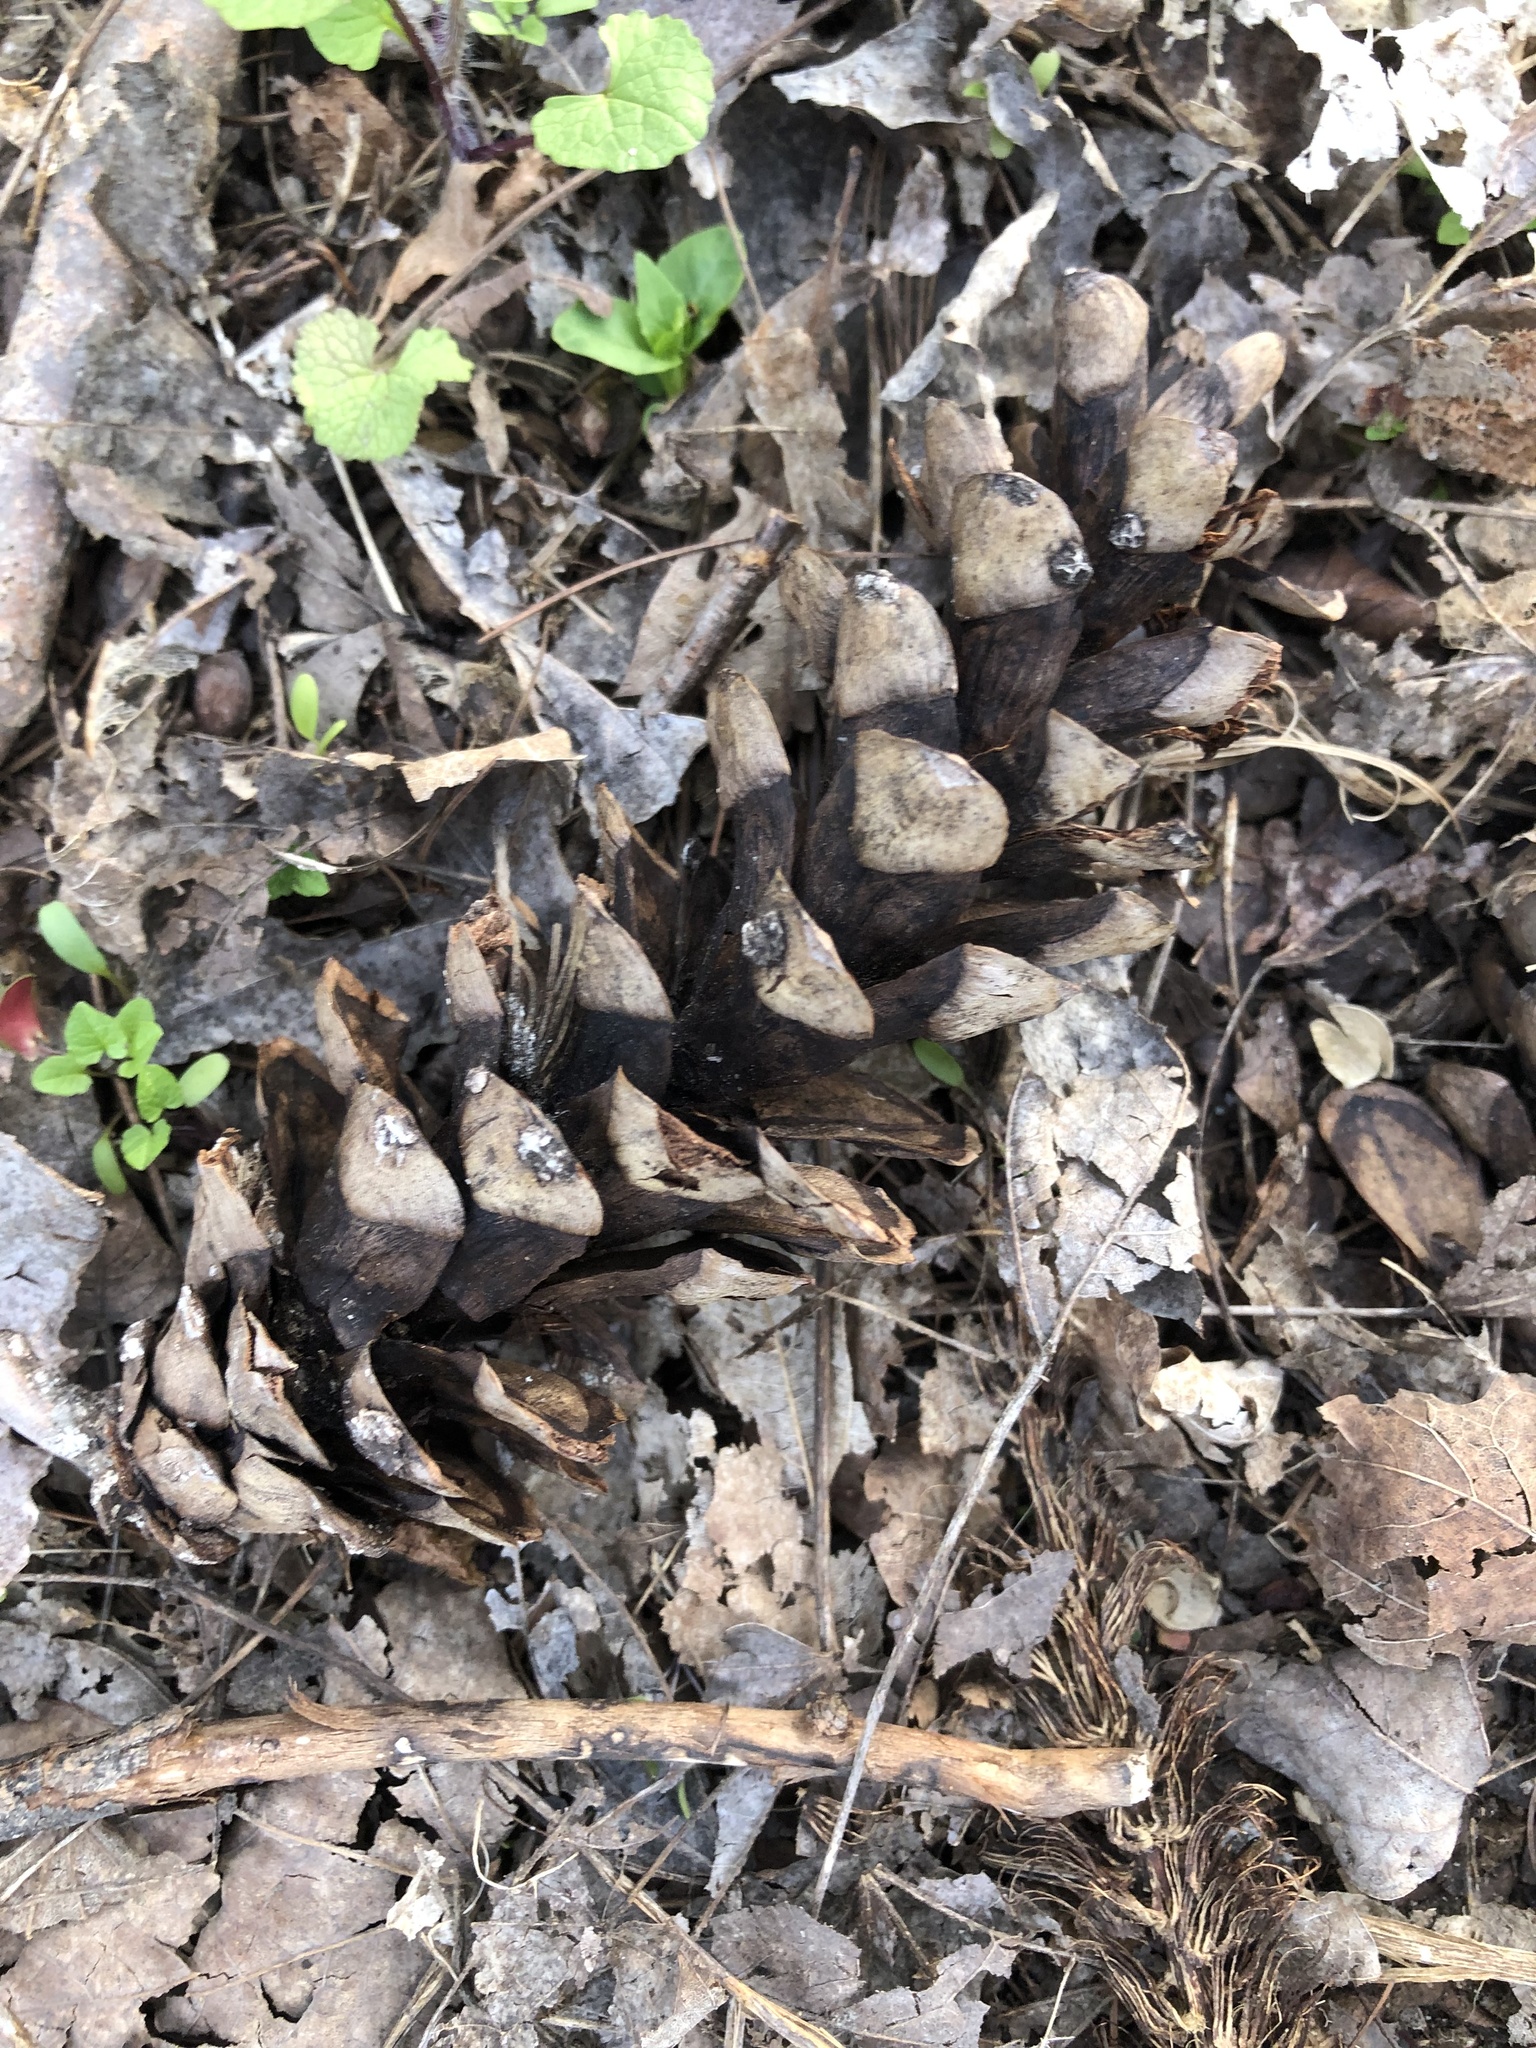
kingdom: Plantae
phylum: Tracheophyta
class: Pinopsida
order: Pinales
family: Pinaceae
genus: Pinus
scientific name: Pinus strobus
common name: Weymouth pine
